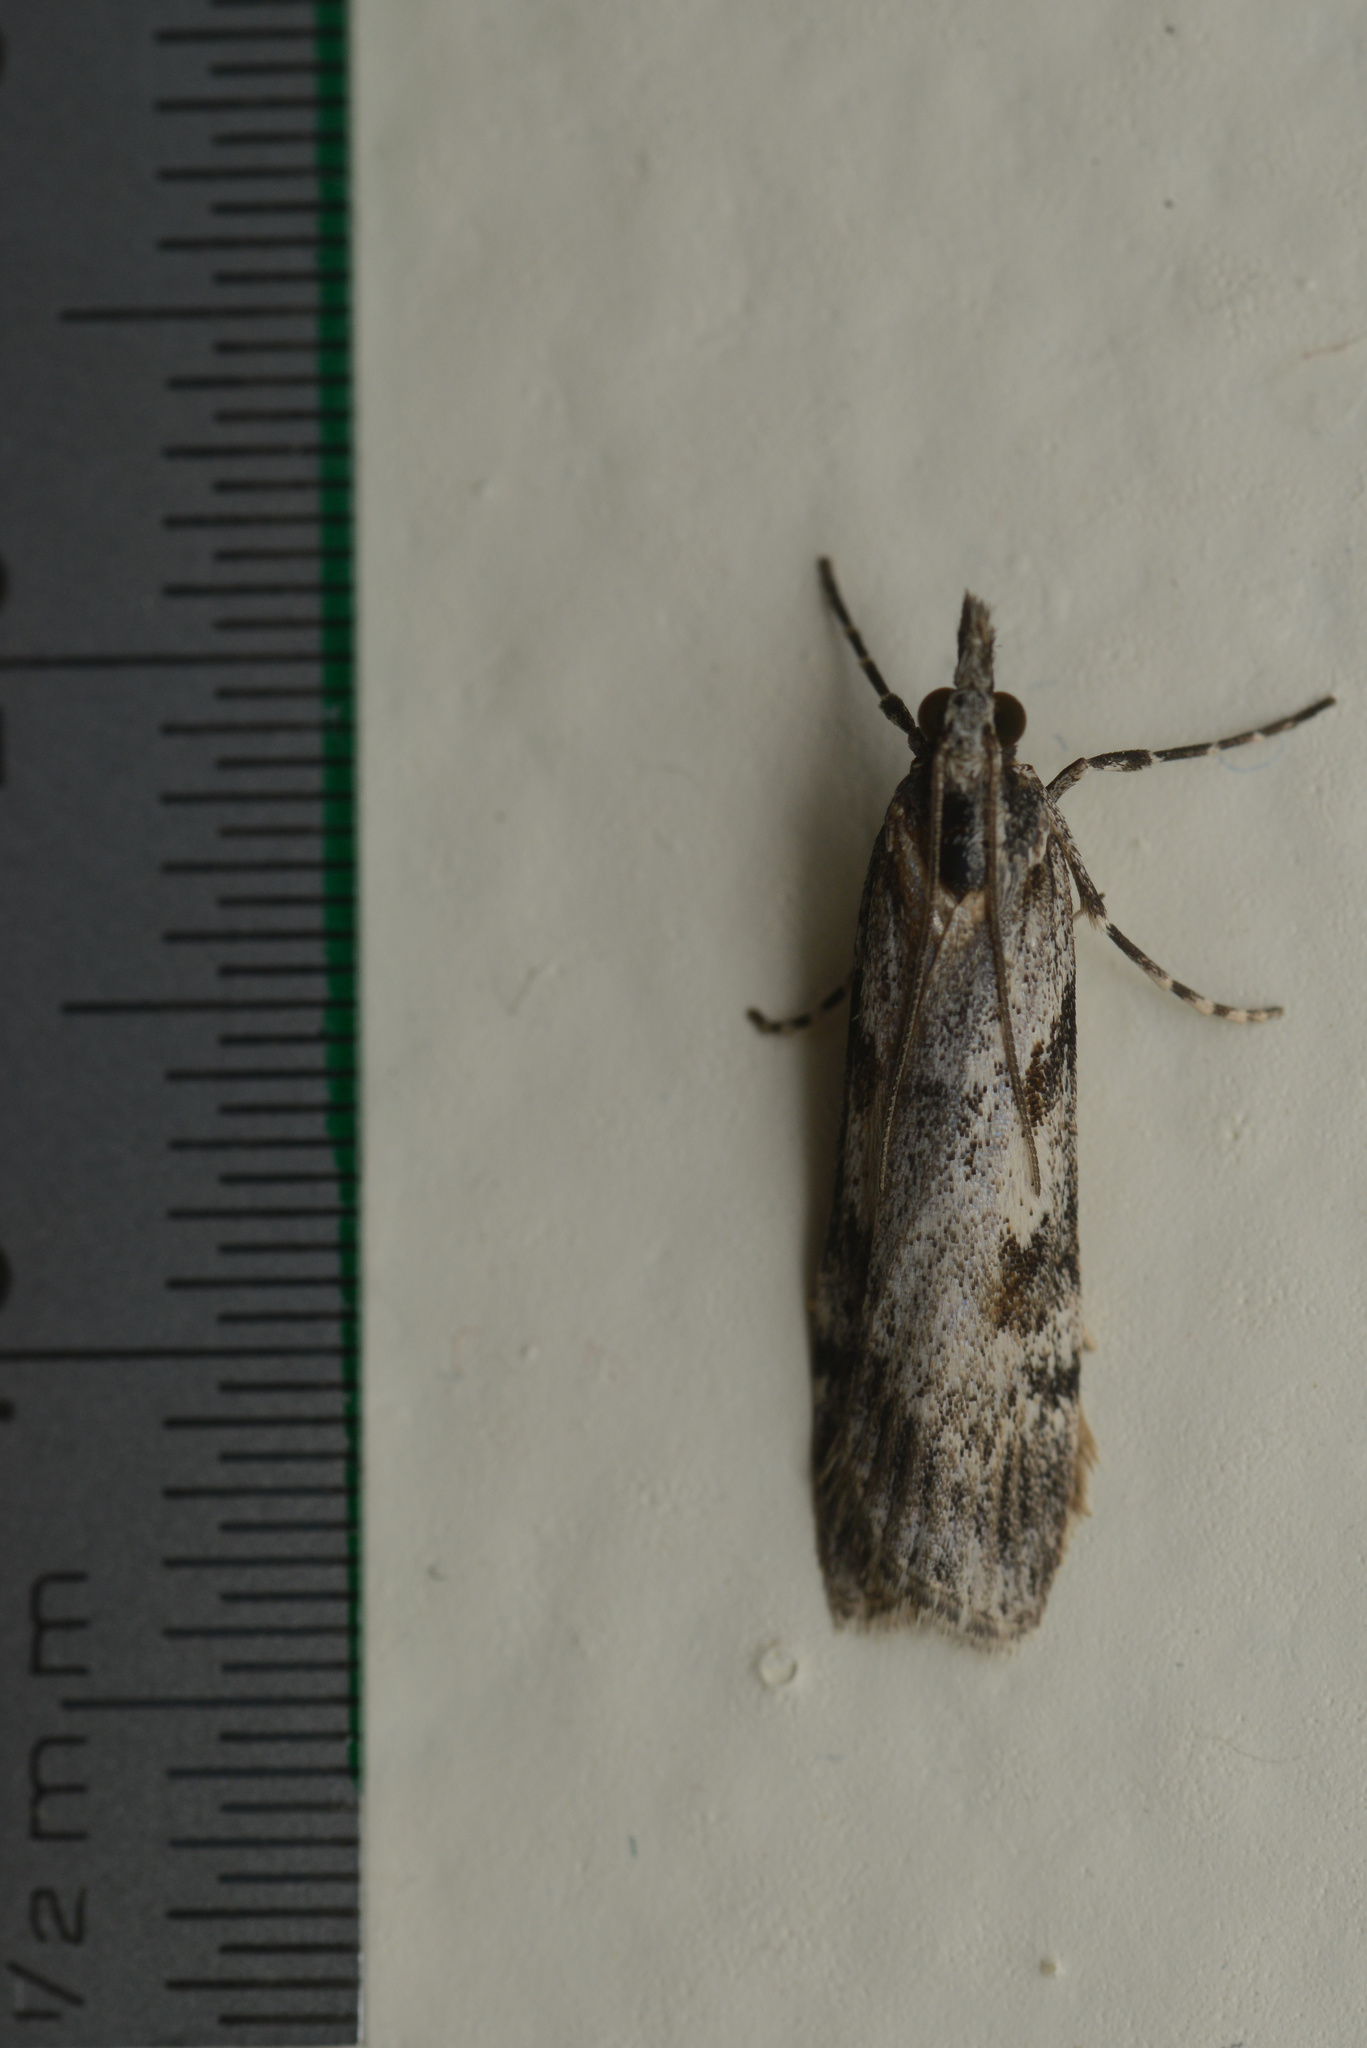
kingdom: Animalia
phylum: Arthropoda
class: Insecta
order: Lepidoptera
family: Crambidae
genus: Scoparia
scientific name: Scoparia halopis
